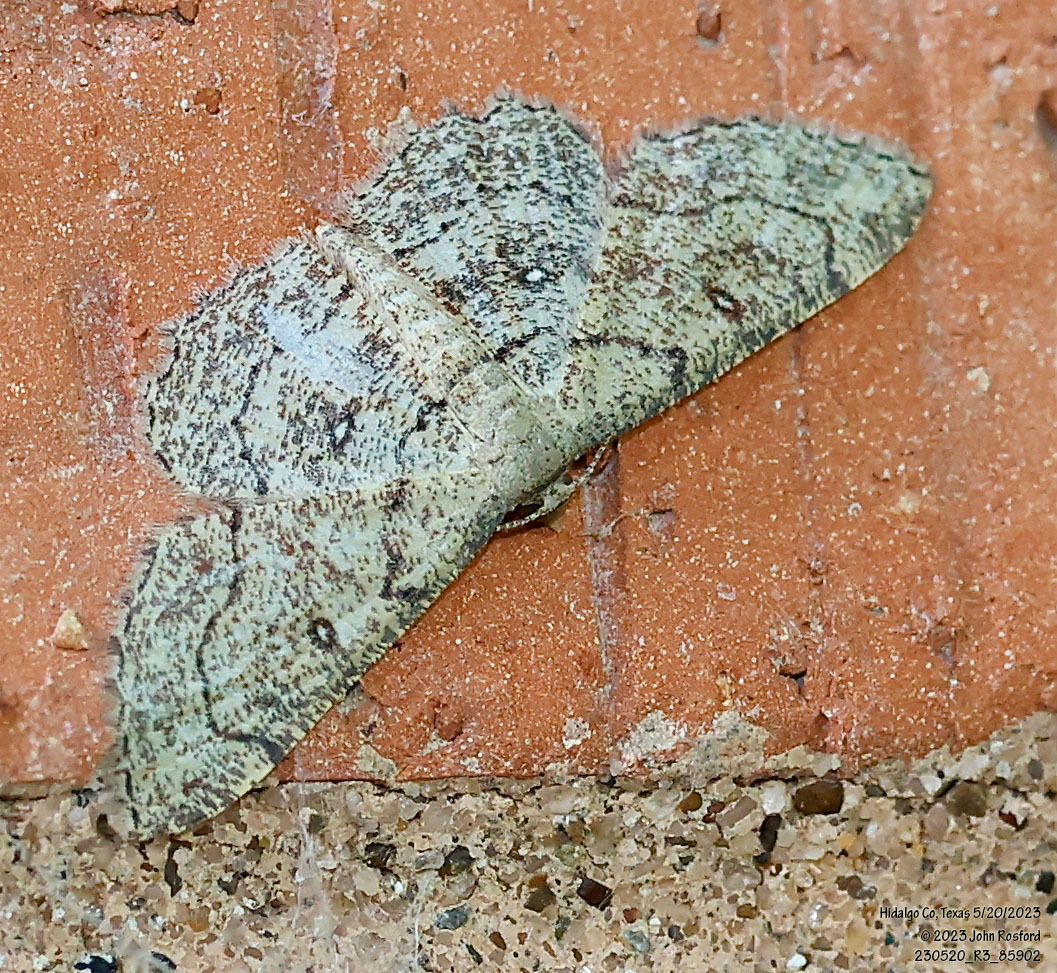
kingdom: Animalia
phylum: Arthropoda
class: Insecta
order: Lepidoptera
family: Geometridae
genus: Cyclophora
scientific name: Cyclophora nanaria
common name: Cankerworm
